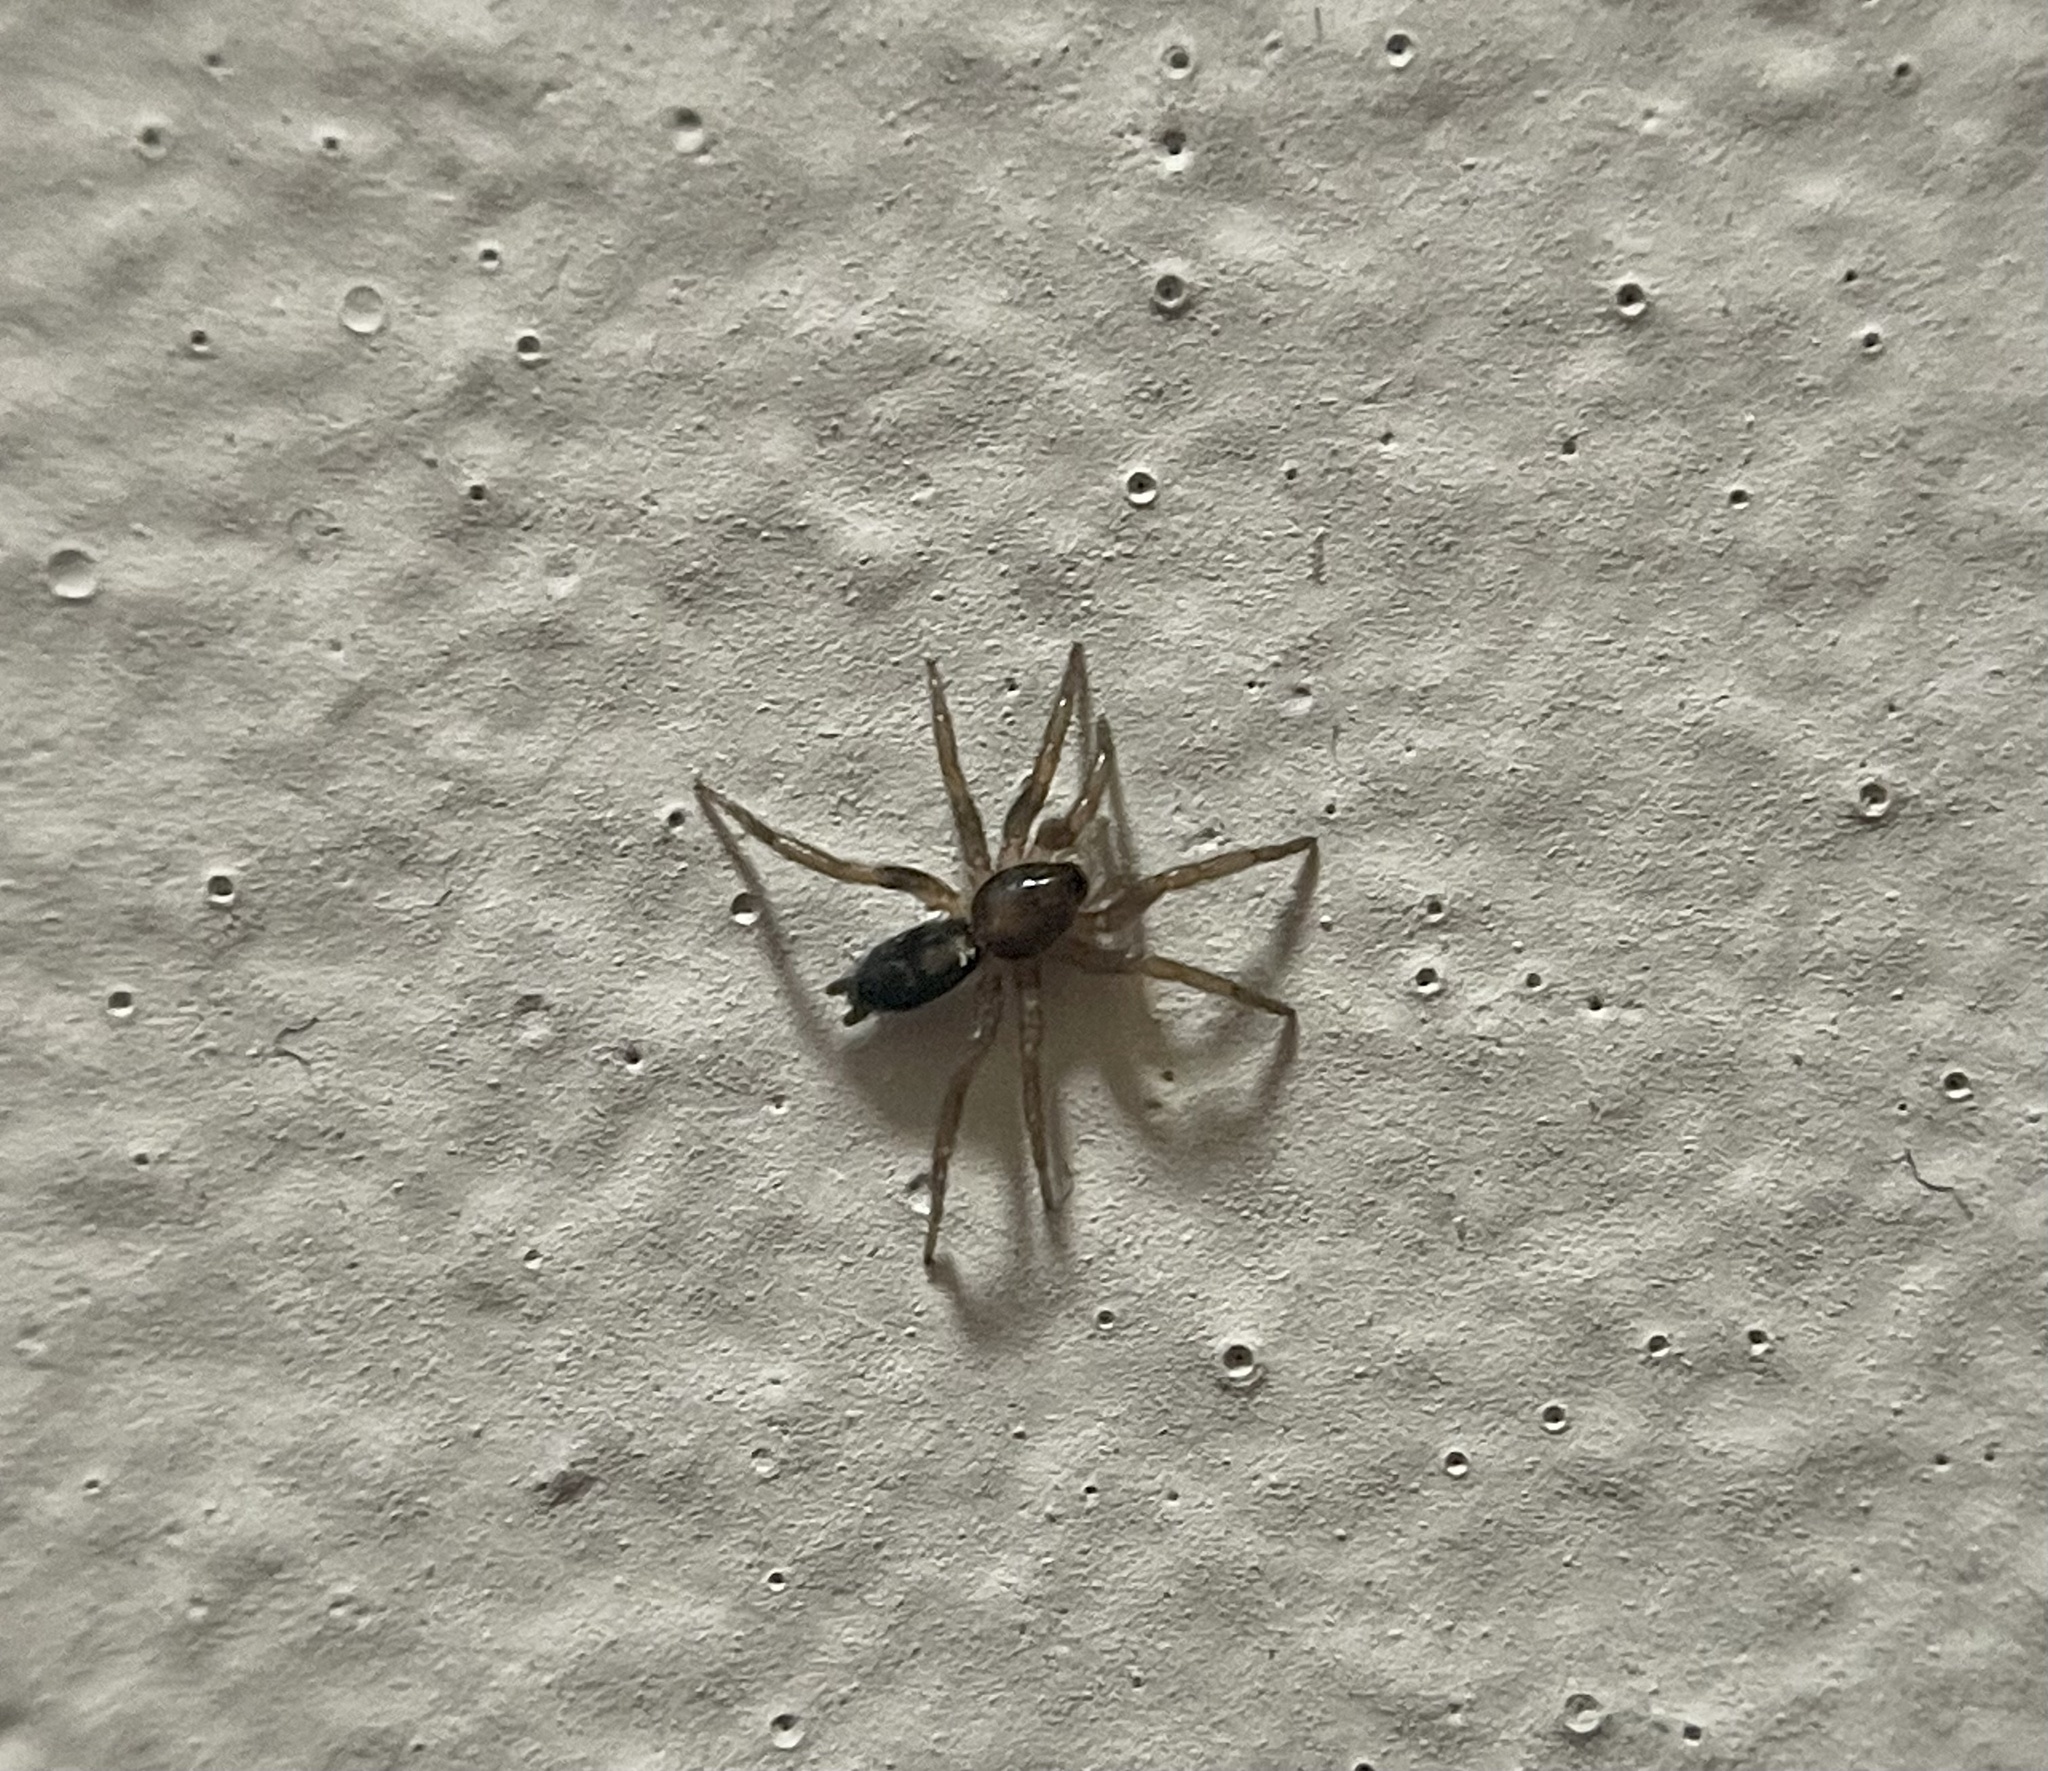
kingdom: Animalia
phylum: Arthropoda
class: Arachnida
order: Araneae
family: Gnaphosidae
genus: Herpyllus
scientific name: Herpyllus ecclesiasticus
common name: Eastern parson spider
